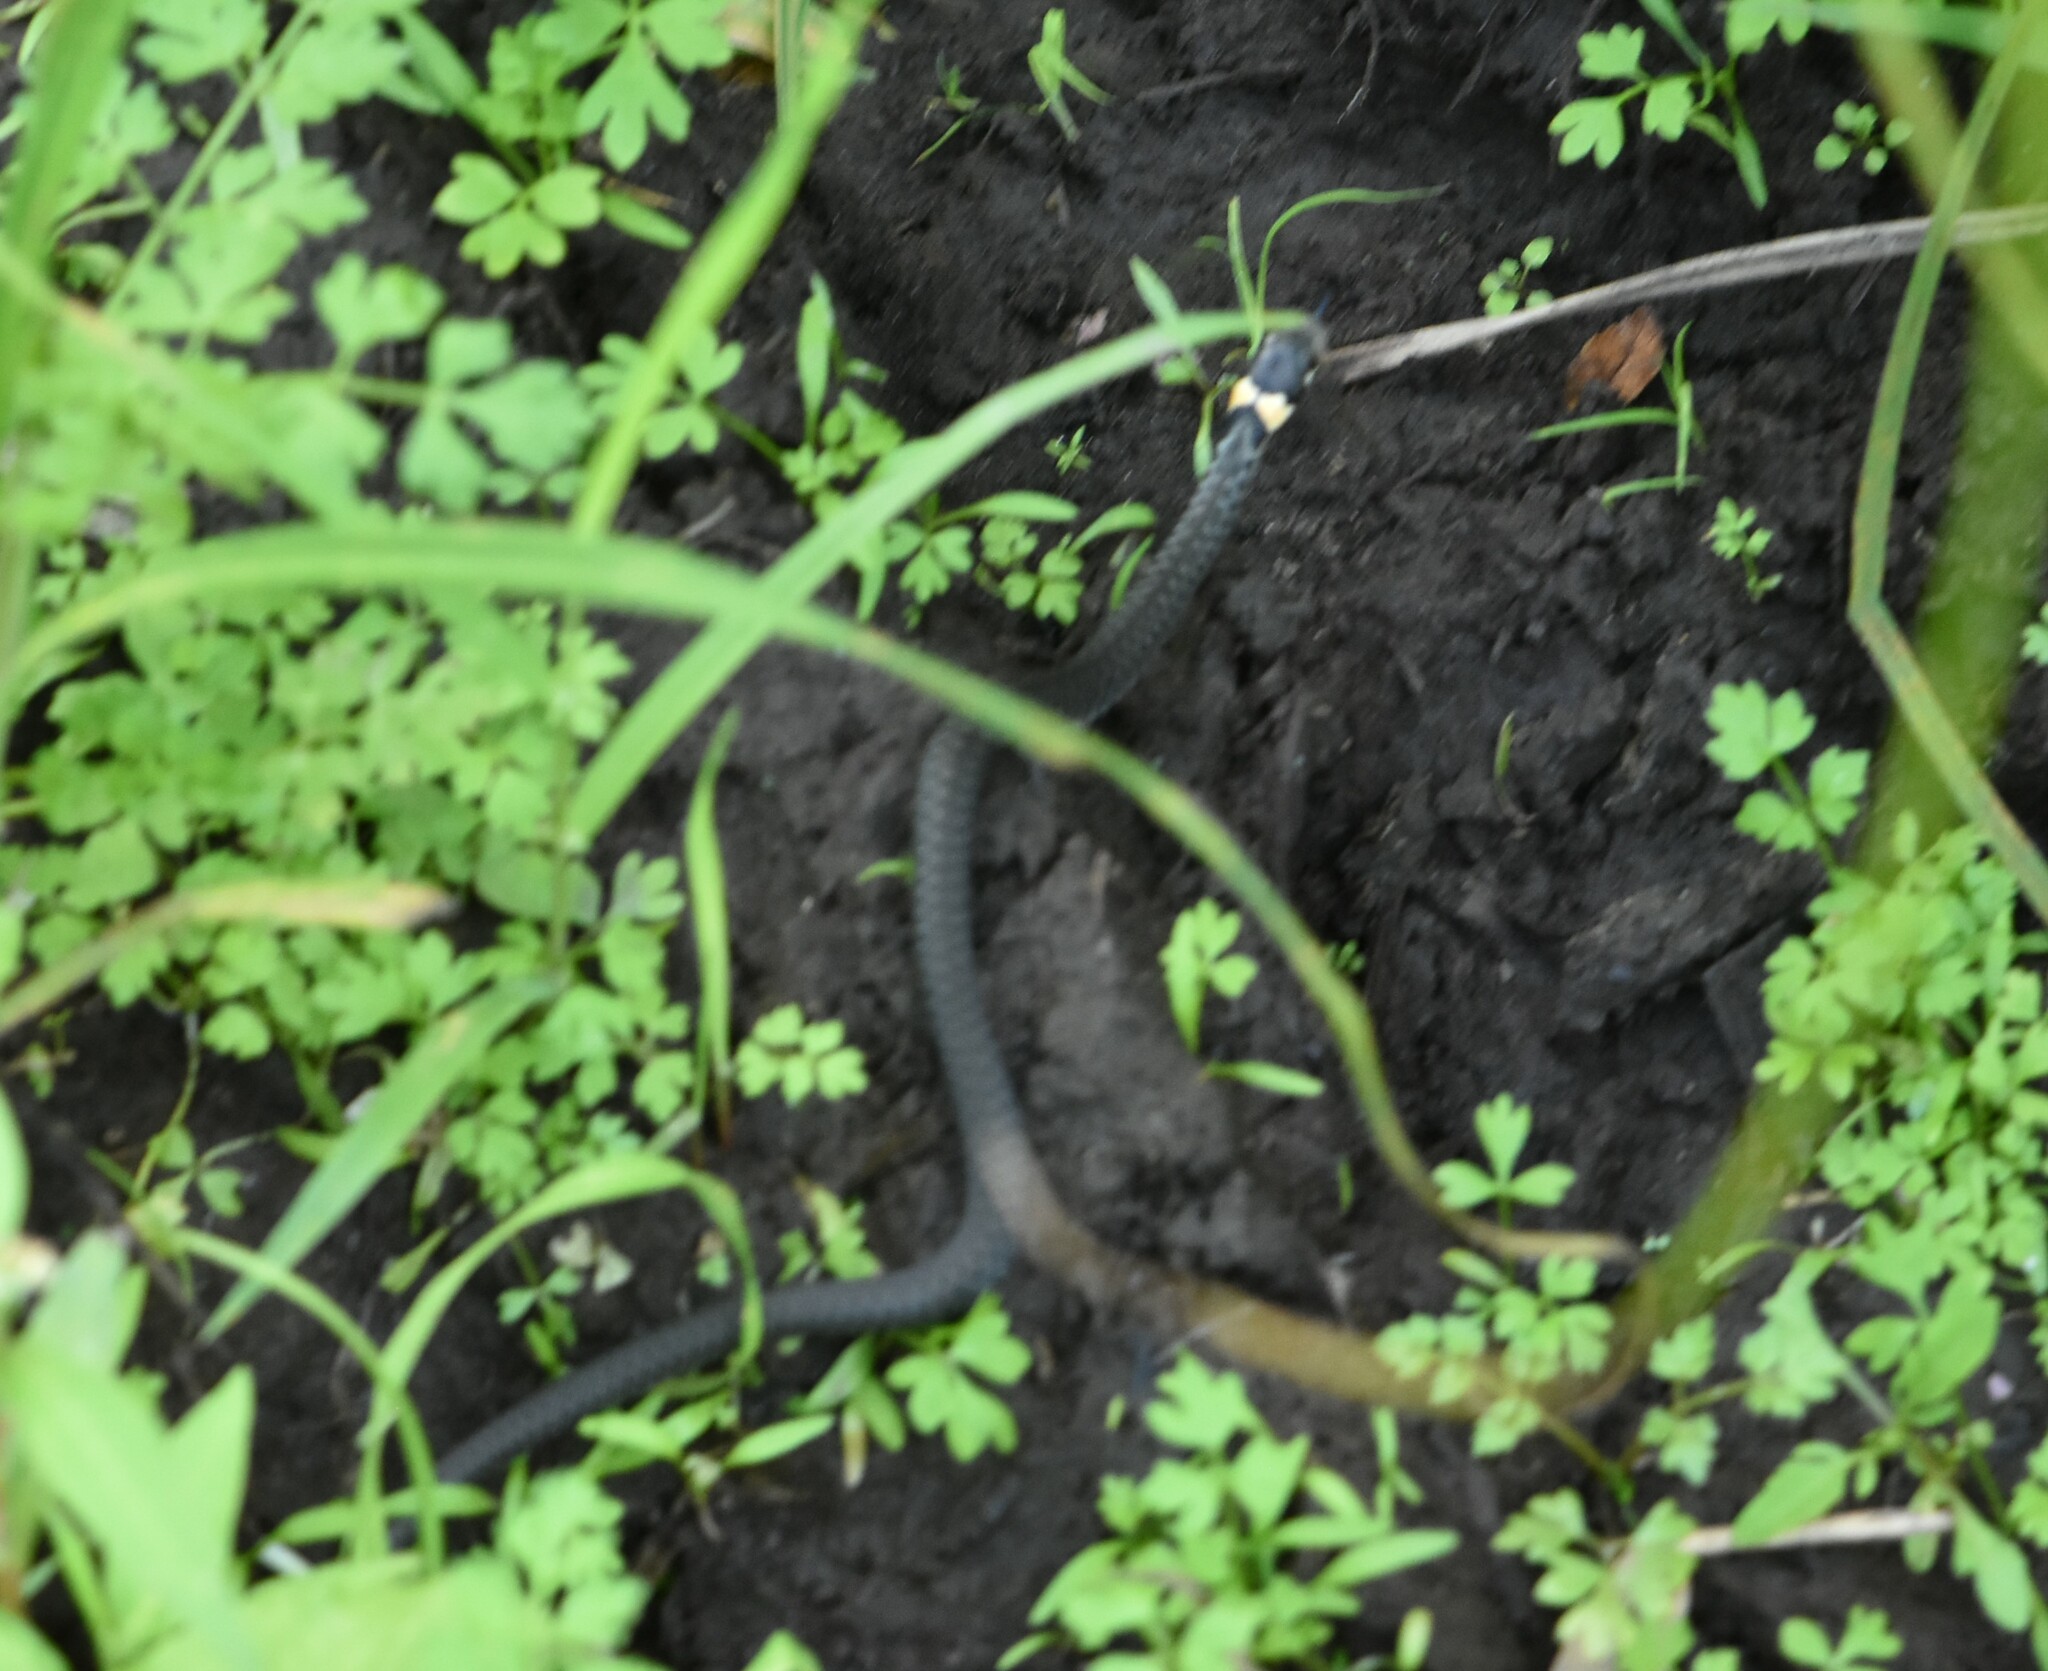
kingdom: Animalia
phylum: Chordata
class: Squamata
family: Colubridae
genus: Natrix
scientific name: Natrix natrix
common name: Grass snake
